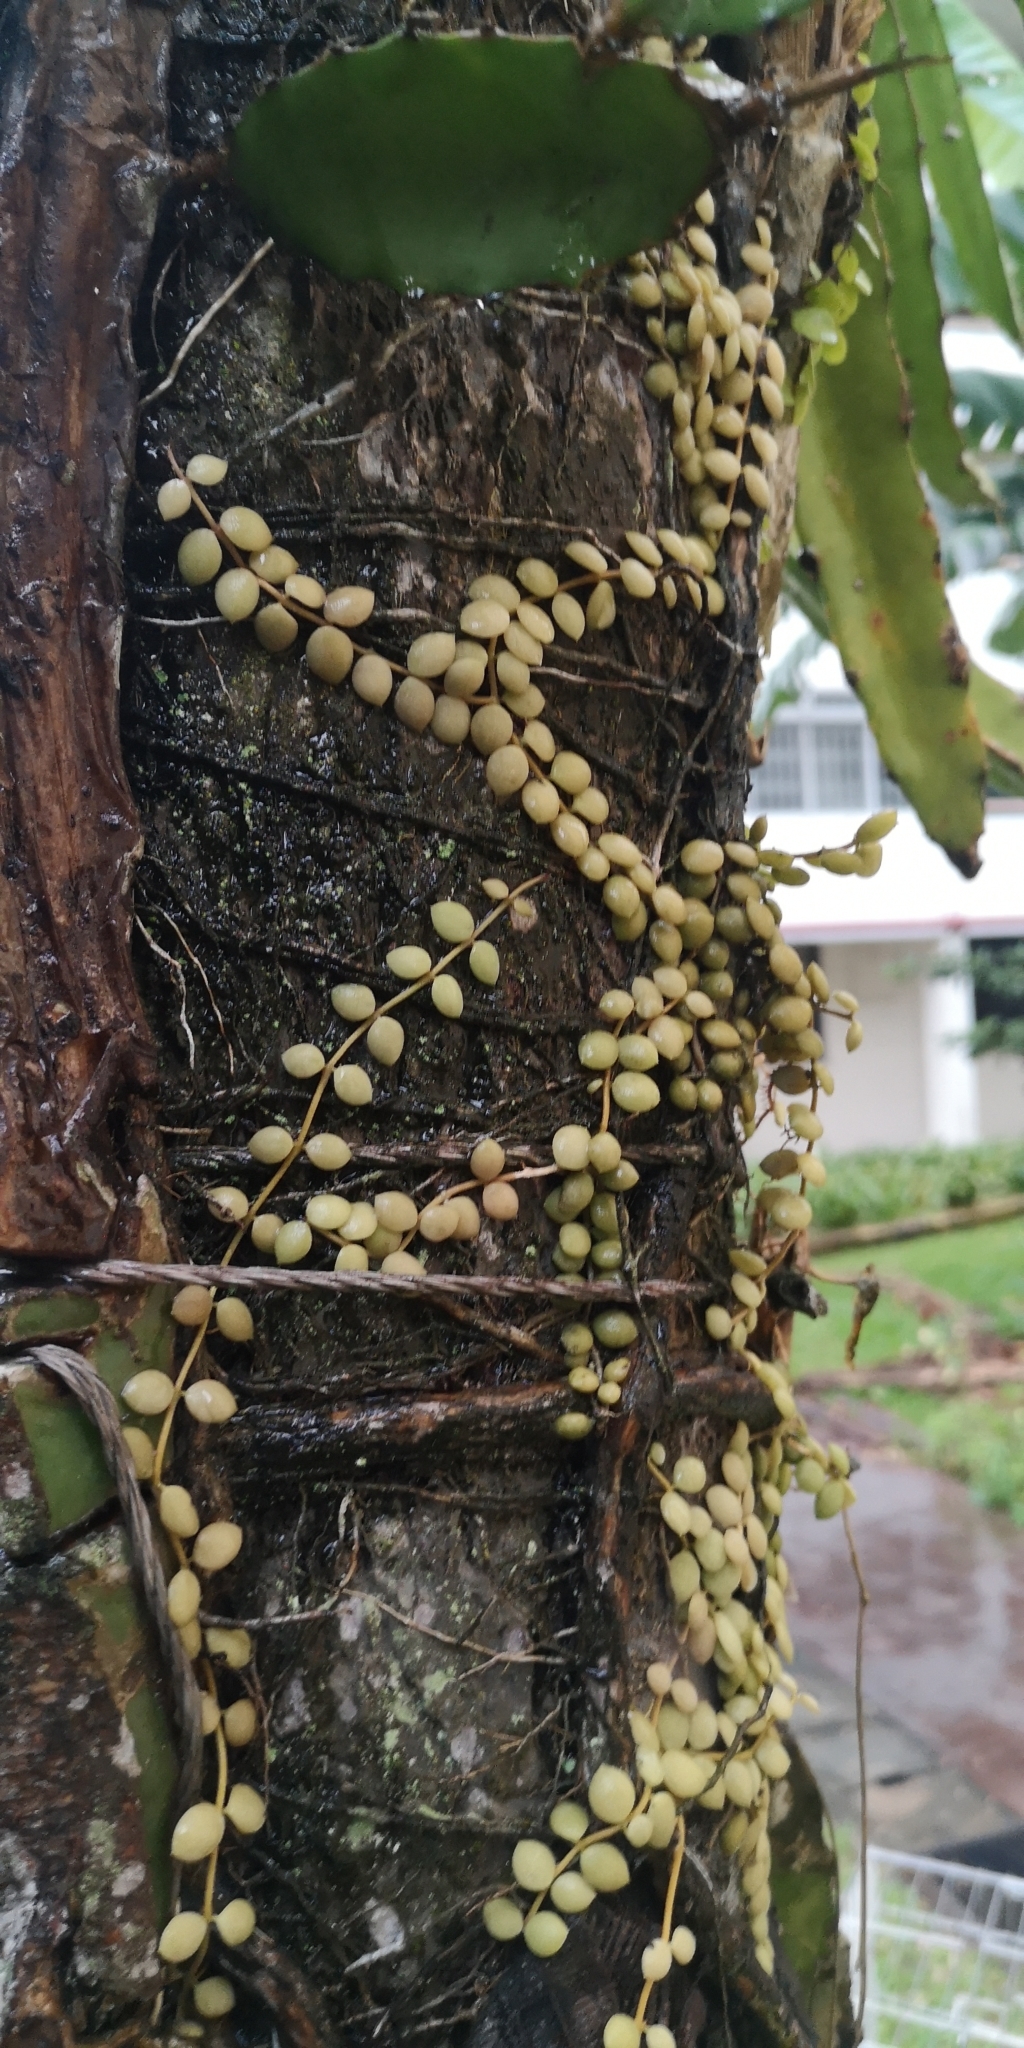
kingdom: Plantae
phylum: Tracheophyta
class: Magnoliopsida
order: Gentianales
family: Apocynaceae
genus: Dischidia
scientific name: Dischidia nummularia
